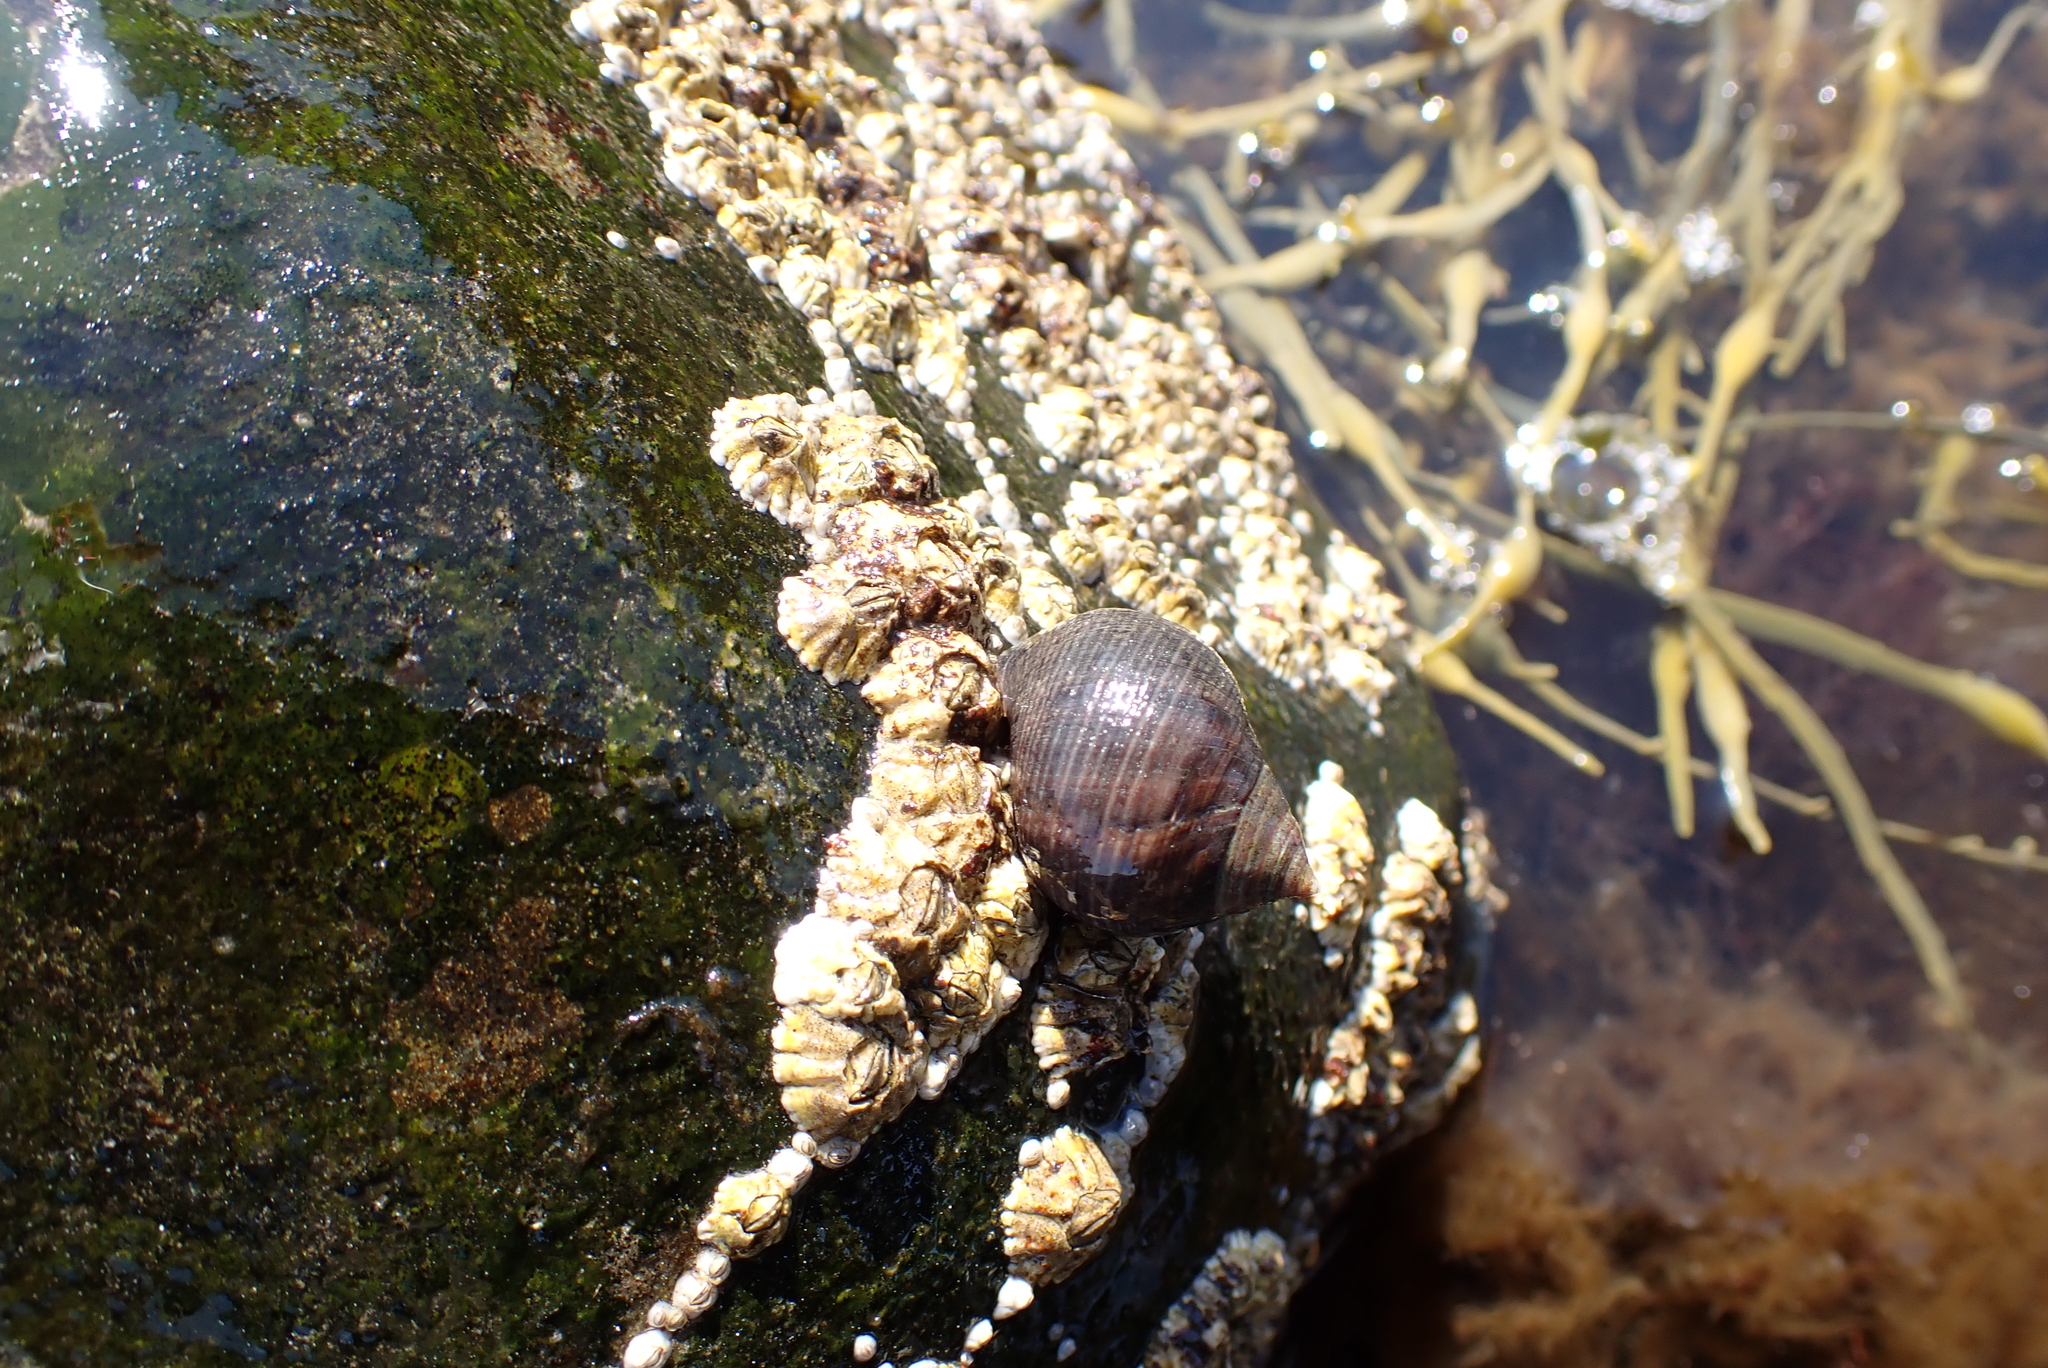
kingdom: Animalia
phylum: Mollusca
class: Gastropoda
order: Littorinimorpha
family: Littorinidae
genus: Littorina
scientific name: Littorina littorea
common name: Common periwinkle
